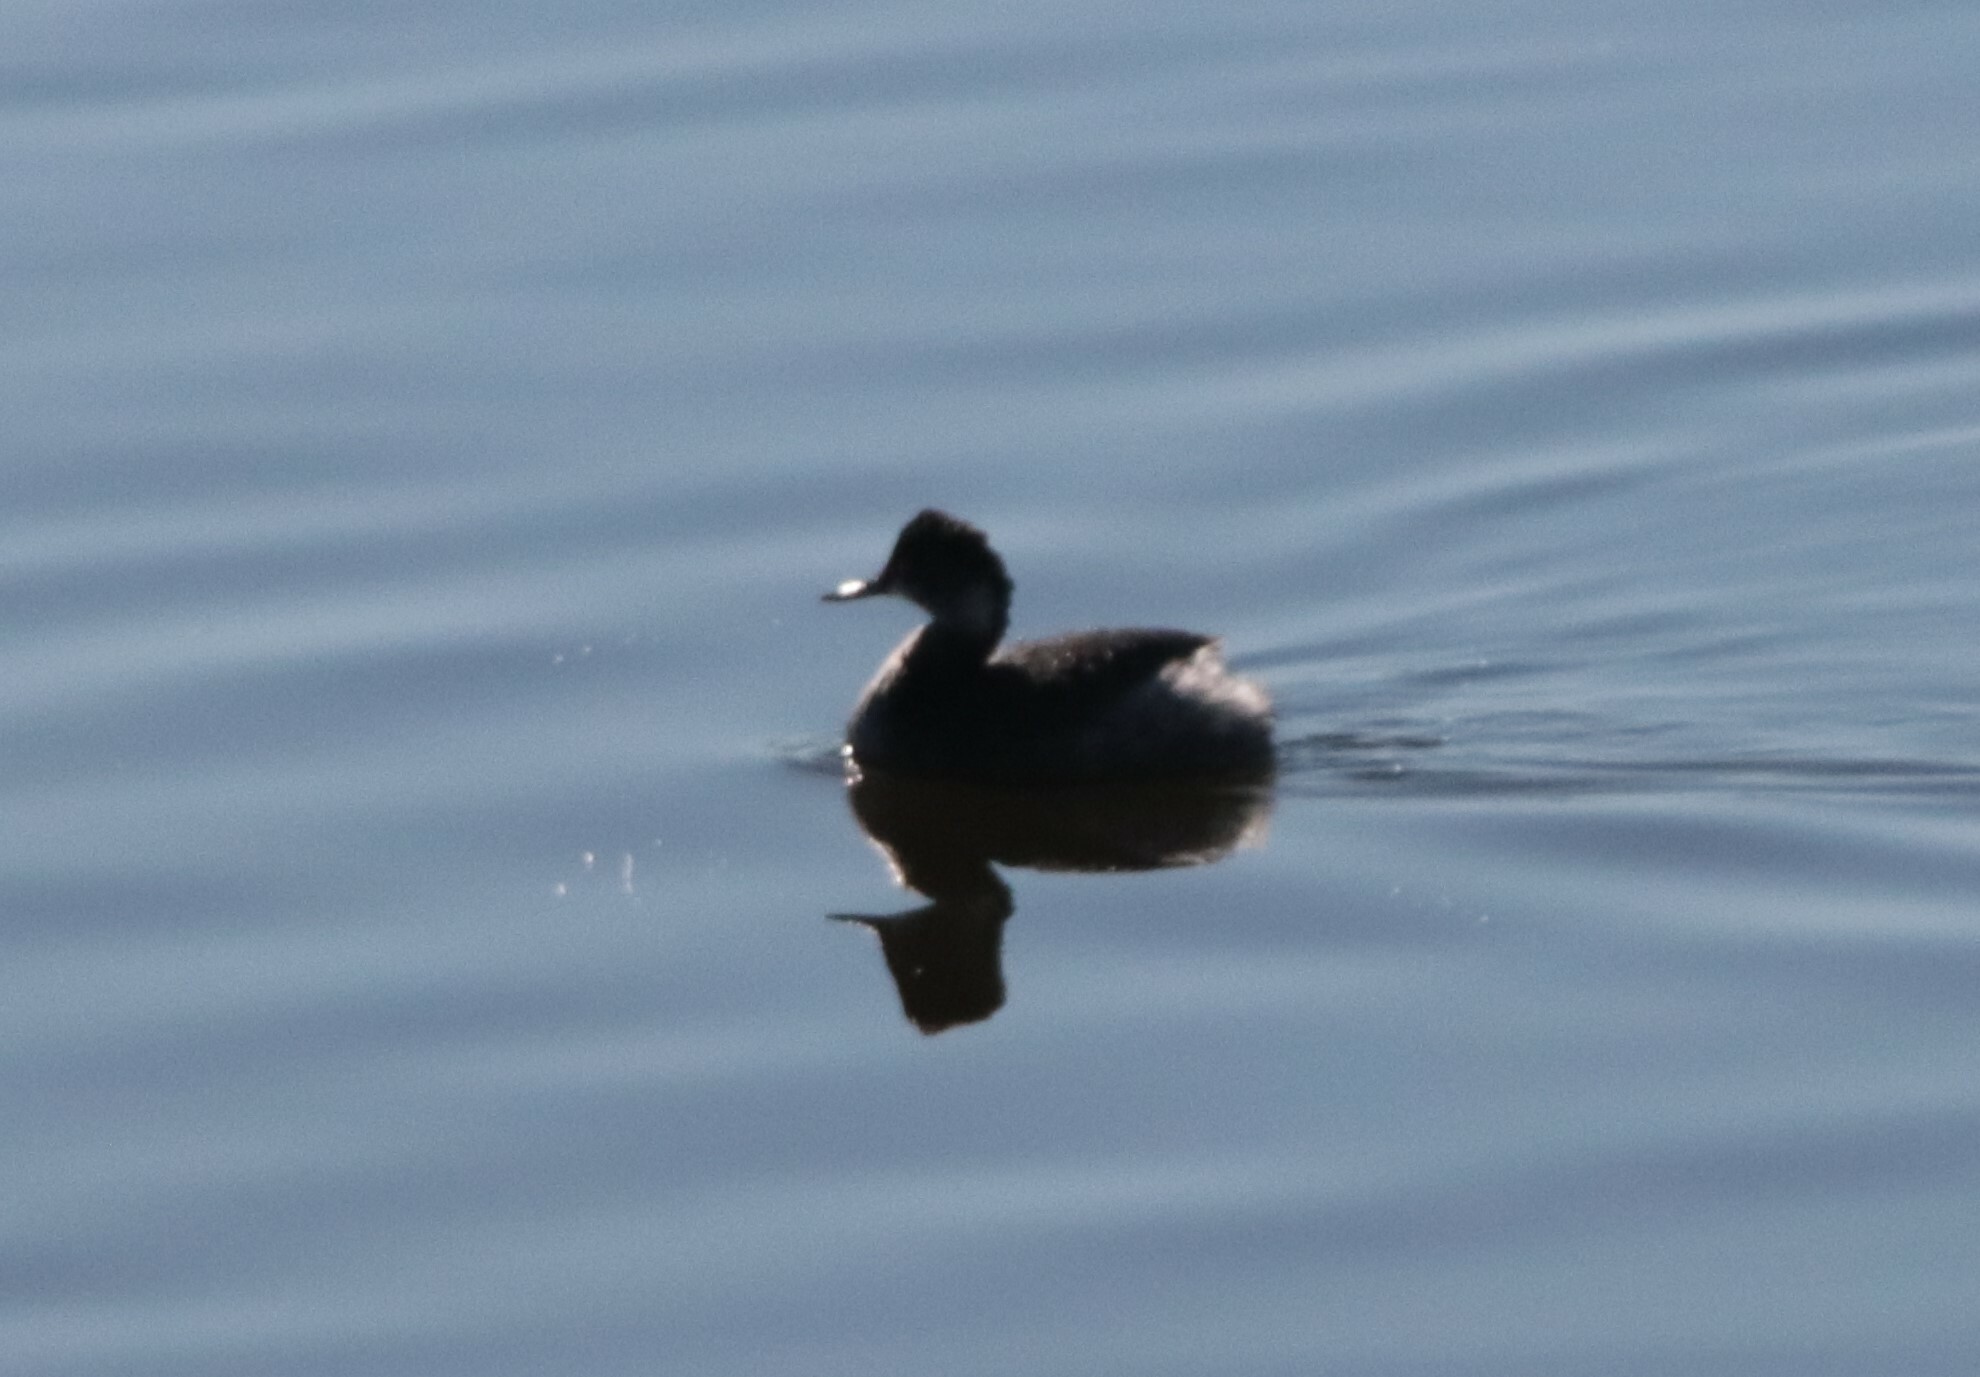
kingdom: Animalia
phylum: Chordata
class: Aves
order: Podicipediformes
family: Podicipedidae
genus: Podiceps
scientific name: Podiceps nigricollis
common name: Black-necked grebe
